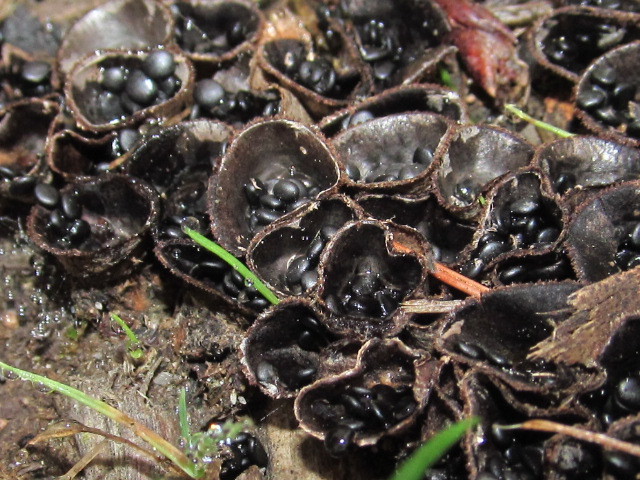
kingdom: Fungi
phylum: Basidiomycota
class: Agaricomycetes
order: Agaricales
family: Agaricaceae
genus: Cyathus
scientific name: Cyathus stercoreus
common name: Dung bird's nest
